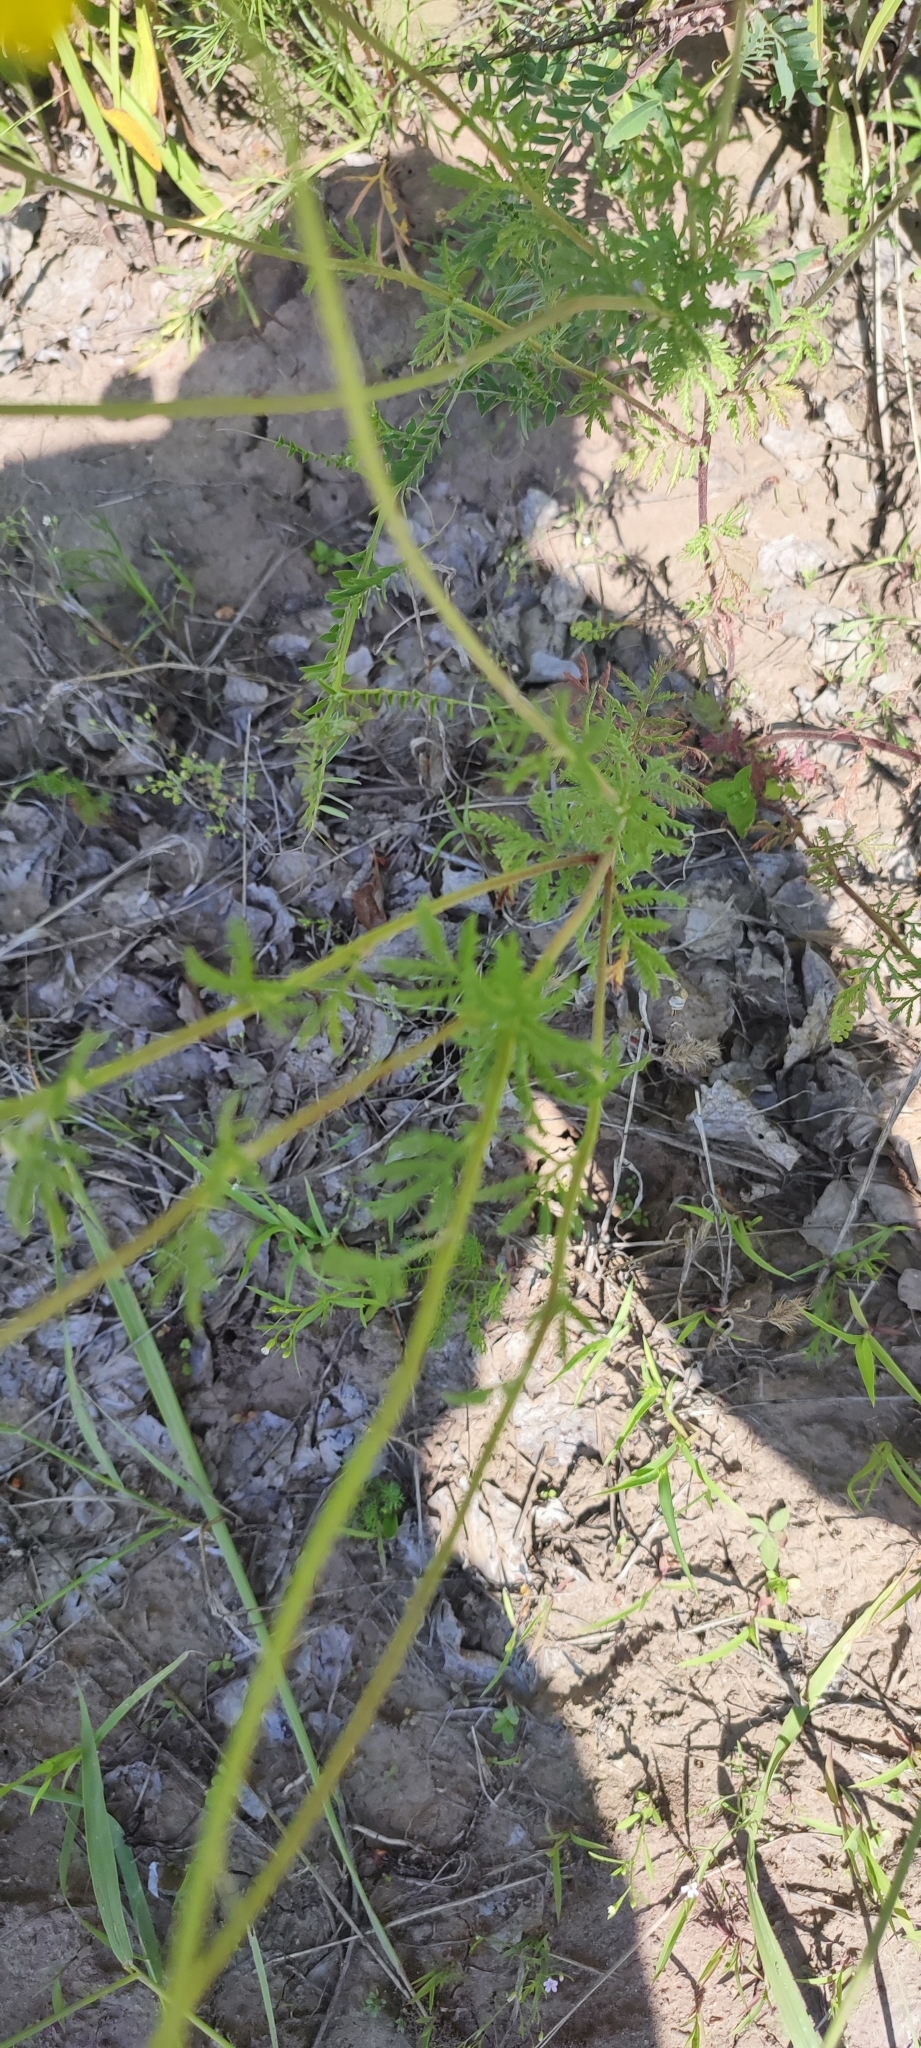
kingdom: Plantae
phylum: Tracheophyta
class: Magnoliopsida
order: Asterales
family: Asteraceae
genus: Cota
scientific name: Cota tinctoria
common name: Golden chamomile
